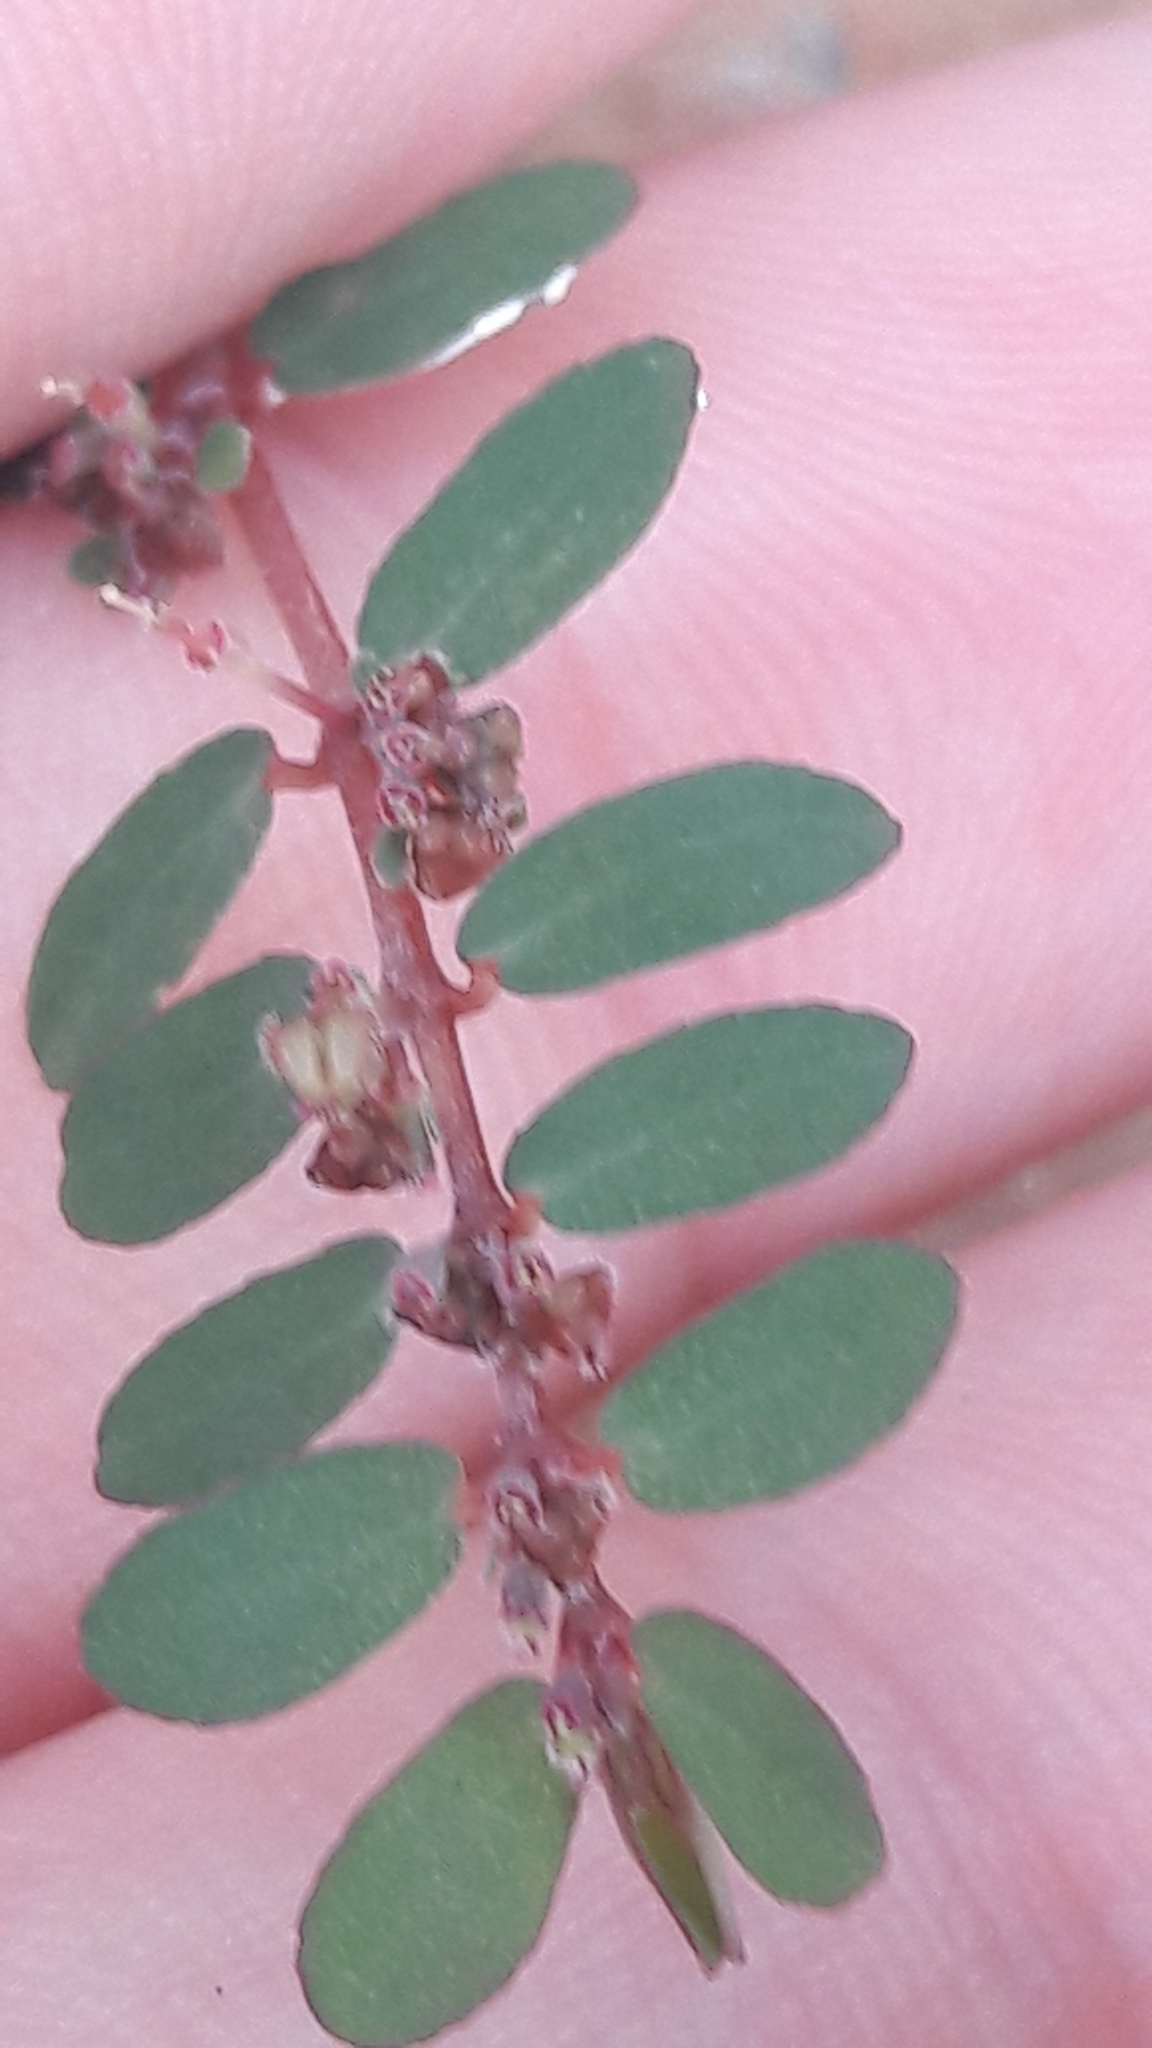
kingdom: Plantae
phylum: Tracheophyta
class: Magnoliopsida
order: Malpighiales
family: Euphorbiaceae
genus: Euphorbia
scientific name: Euphorbia prostrata
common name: Prostrate sandmat
